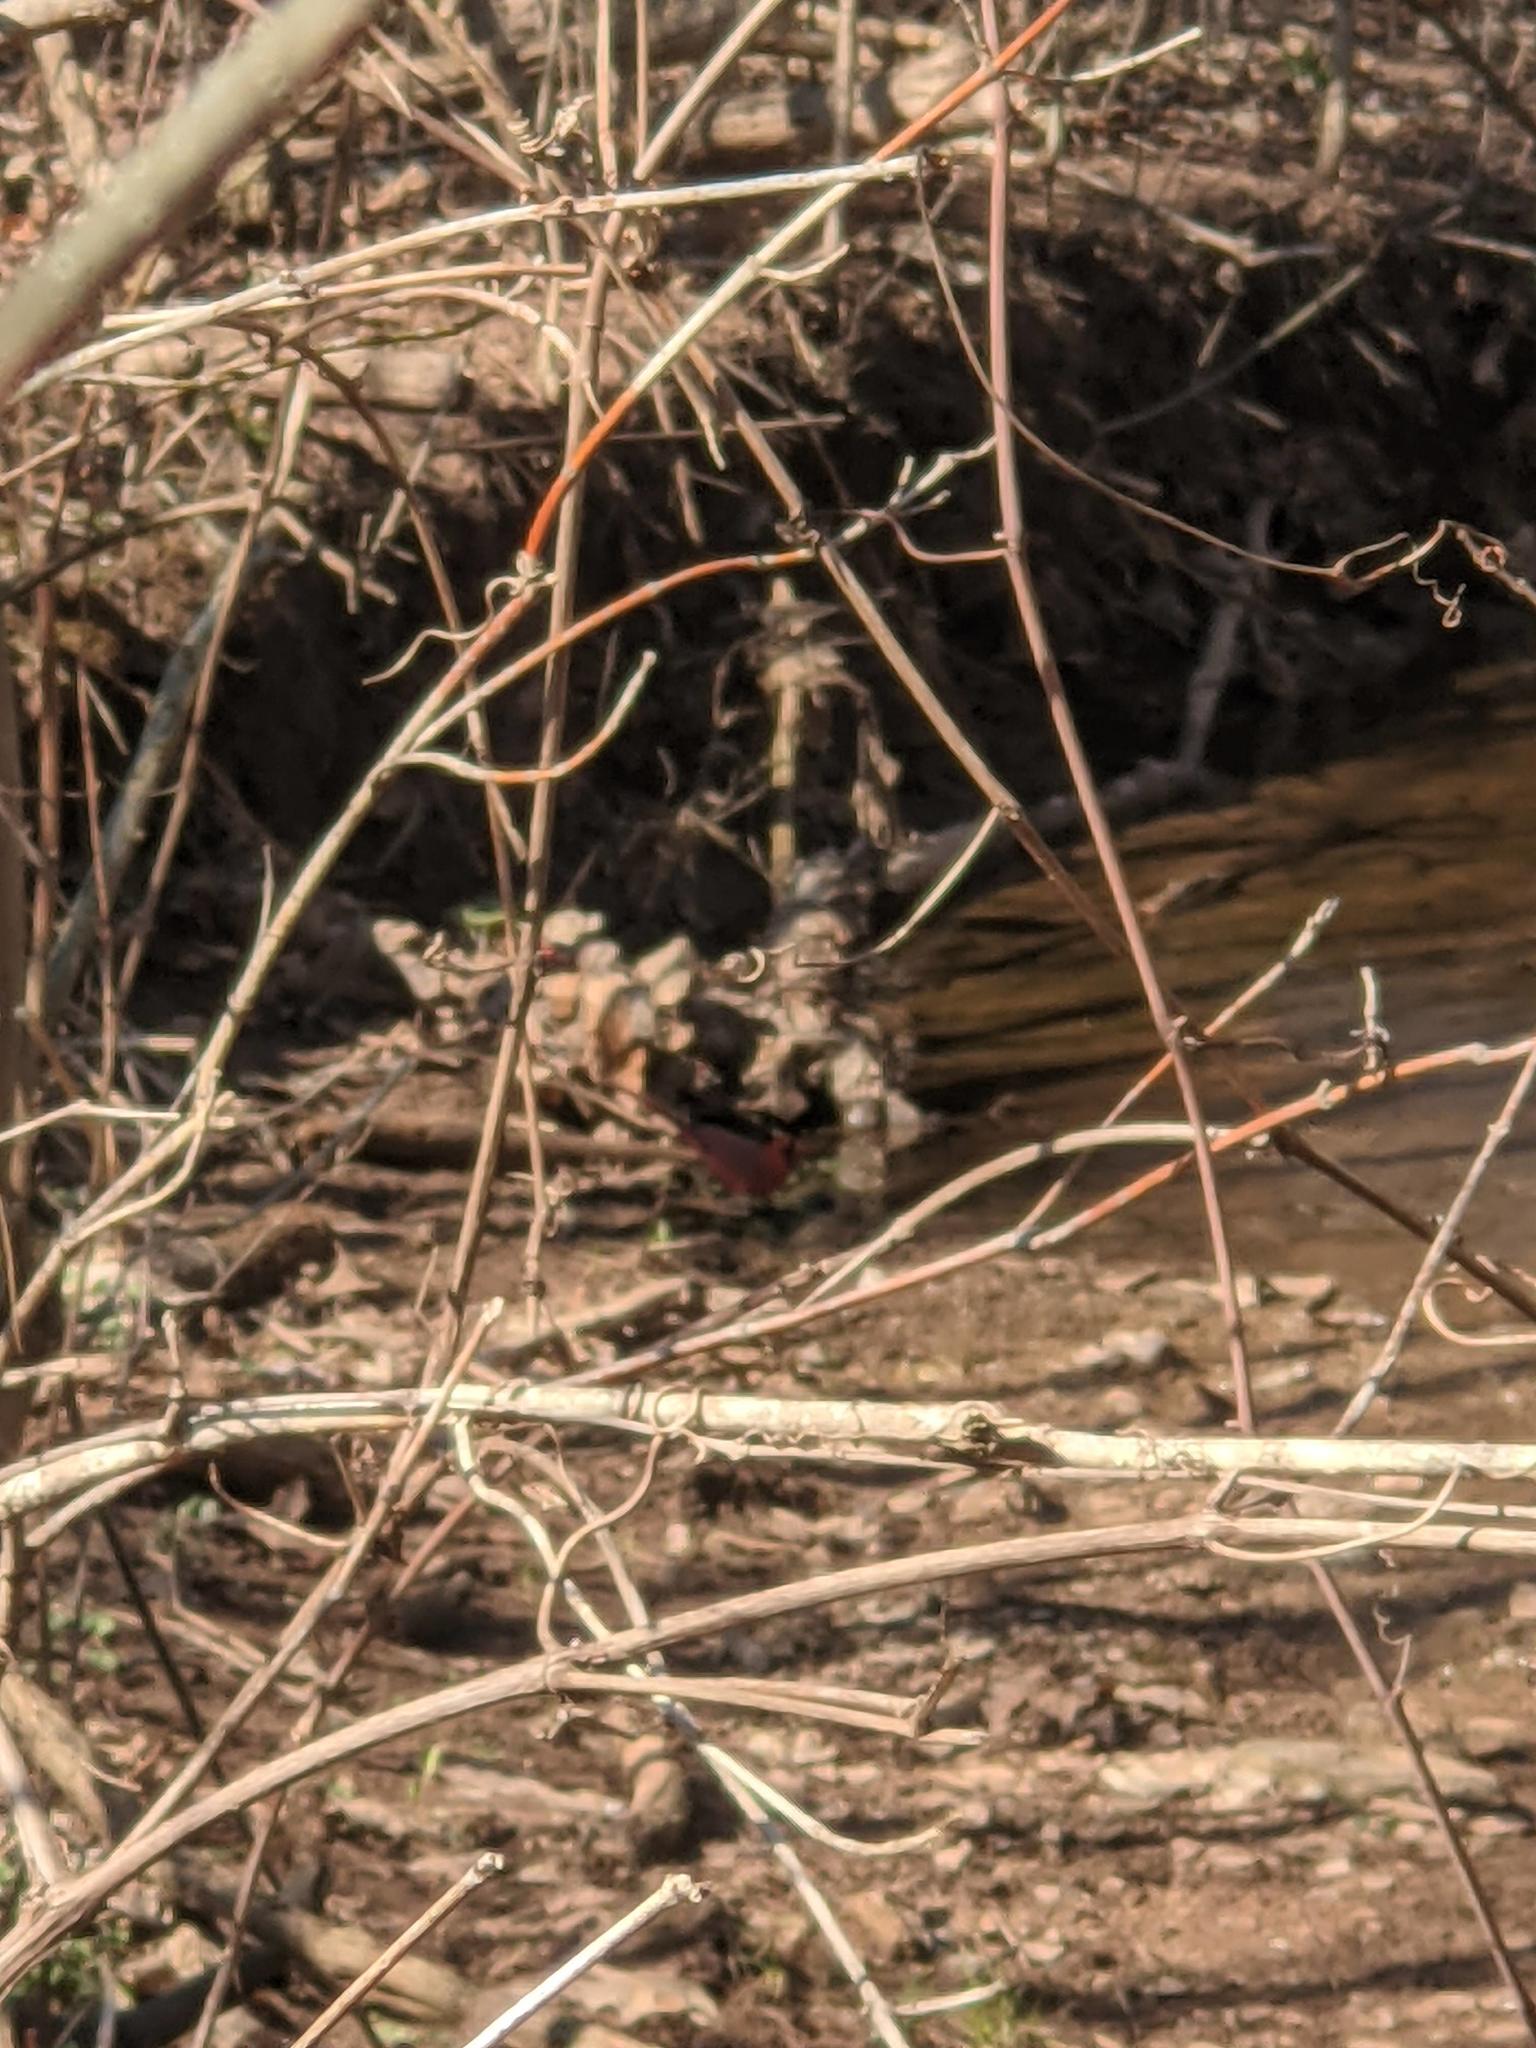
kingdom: Animalia
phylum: Chordata
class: Aves
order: Passeriformes
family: Cardinalidae
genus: Cardinalis
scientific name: Cardinalis cardinalis
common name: Northern cardinal
